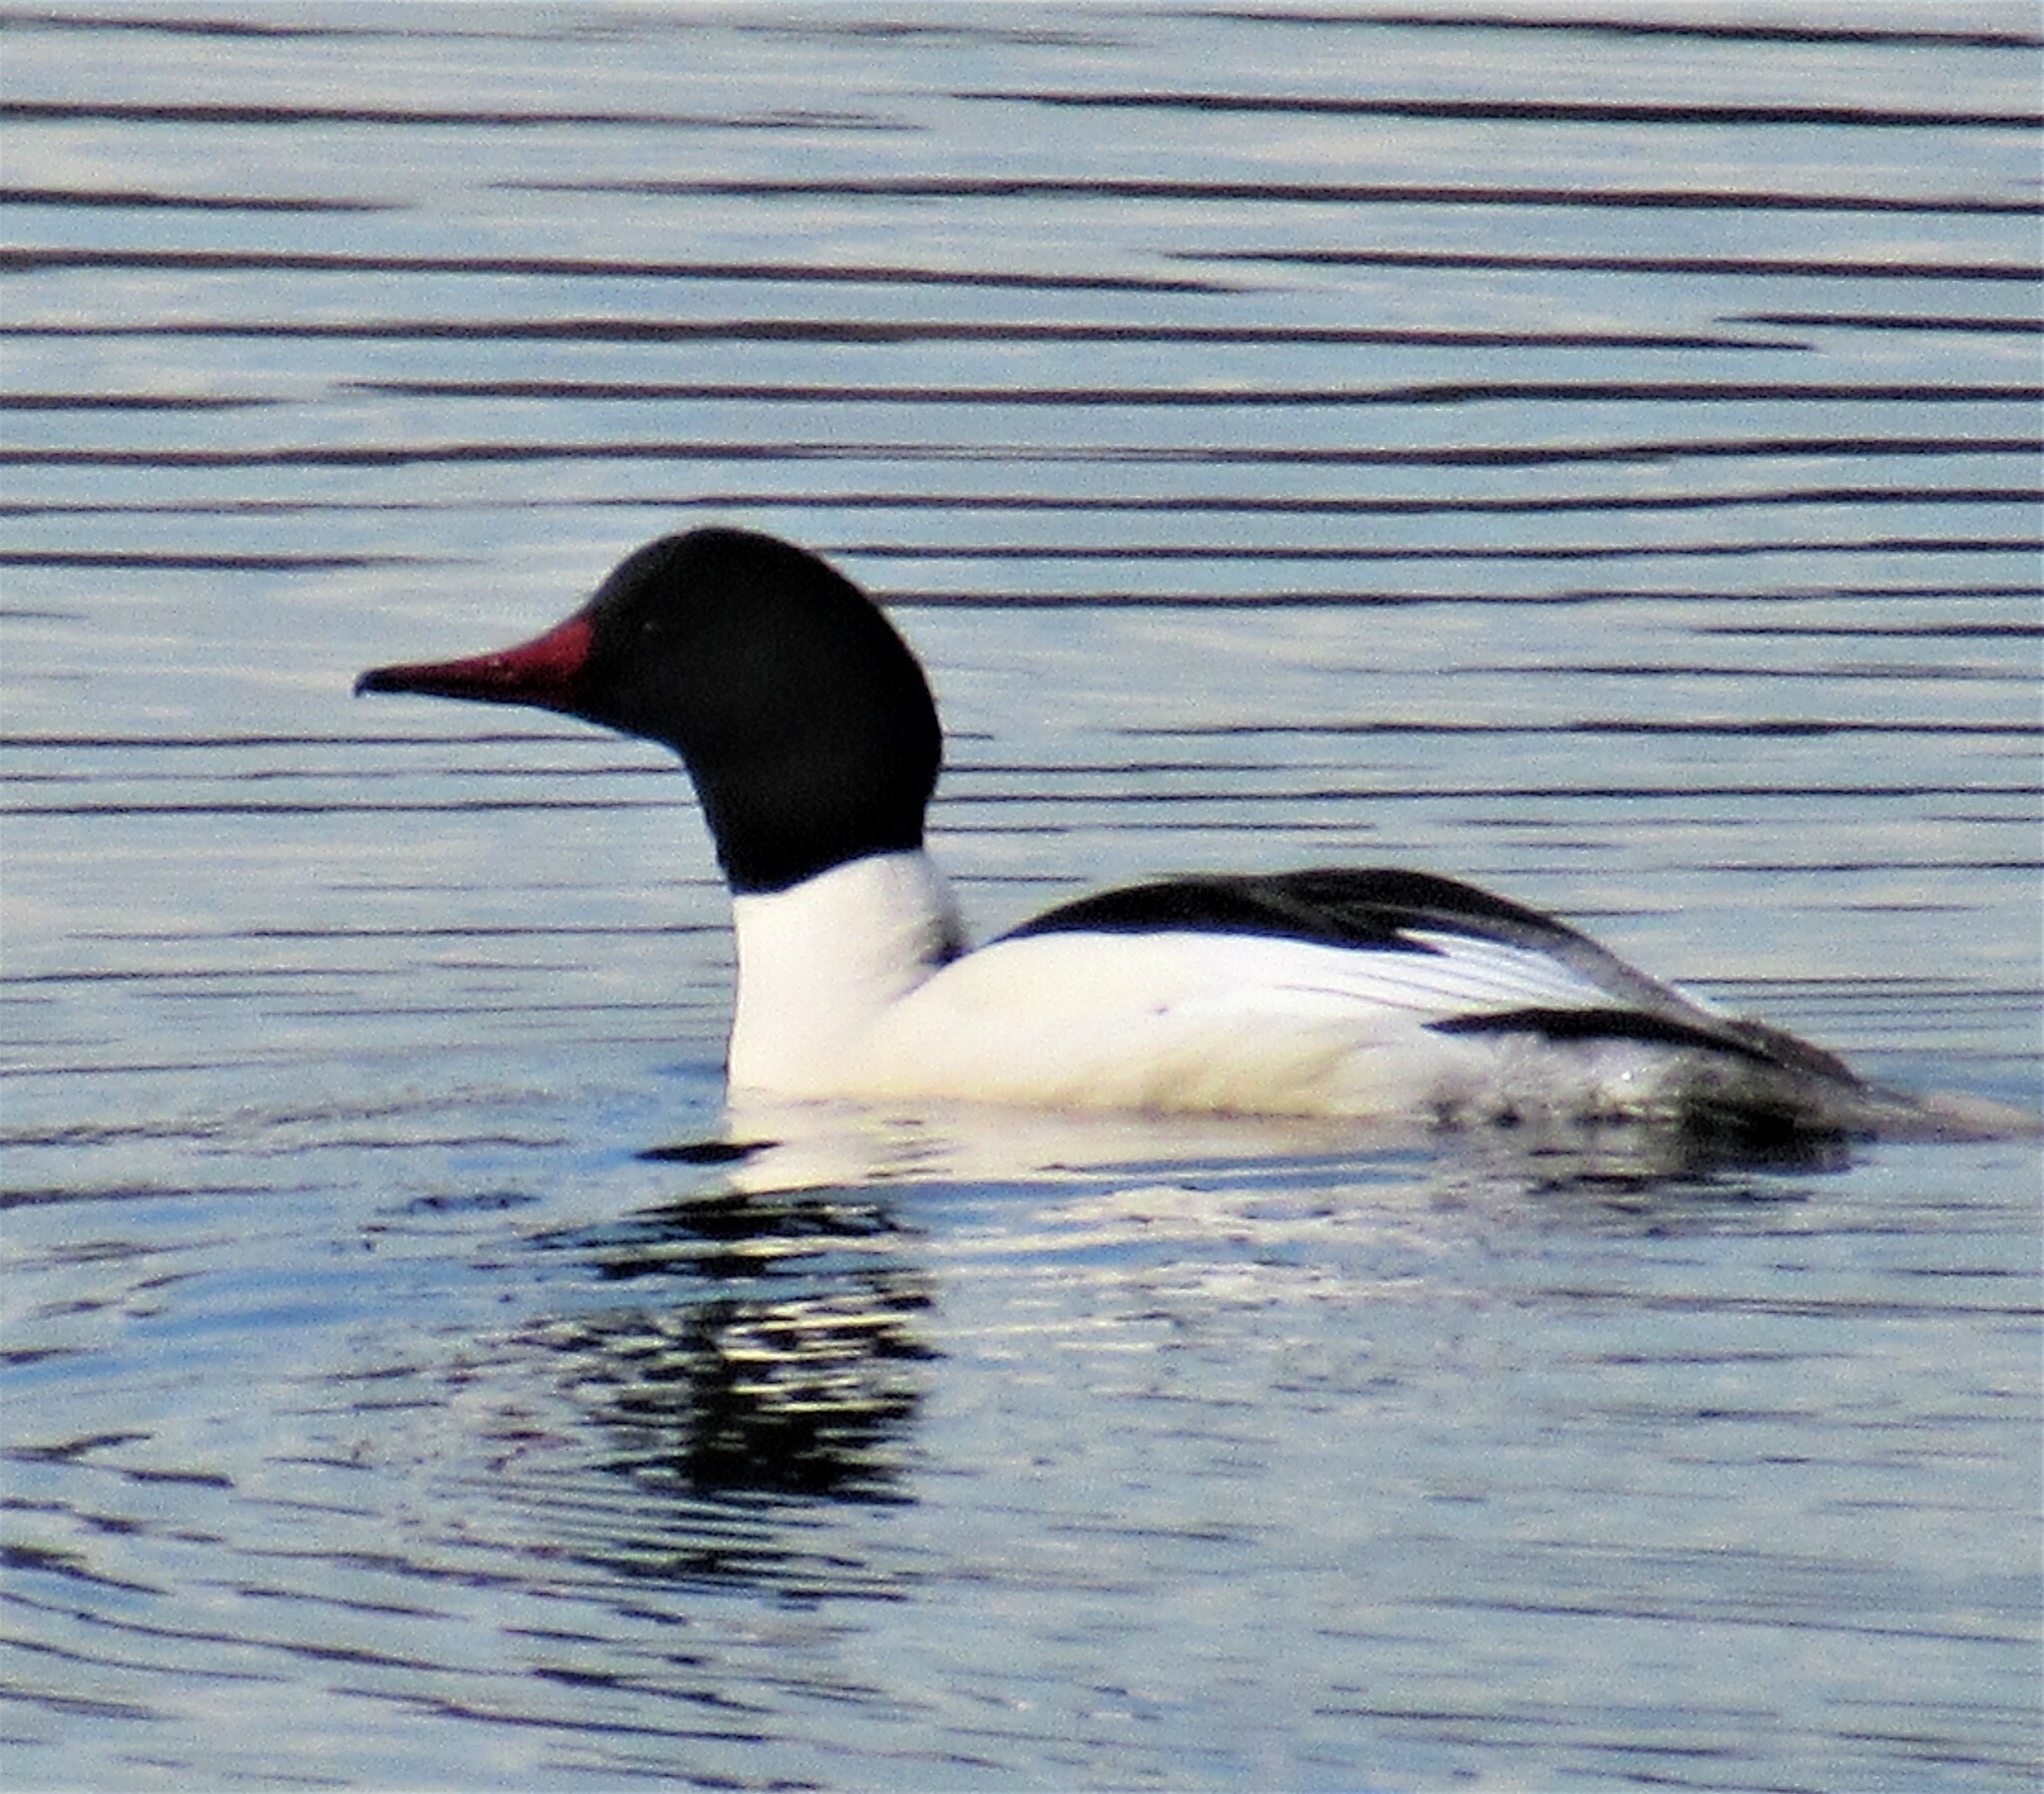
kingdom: Animalia
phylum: Chordata
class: Aves
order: Anseriformes
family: Anatidae
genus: Mergus
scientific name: Mergus merganser
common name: Common merganser
